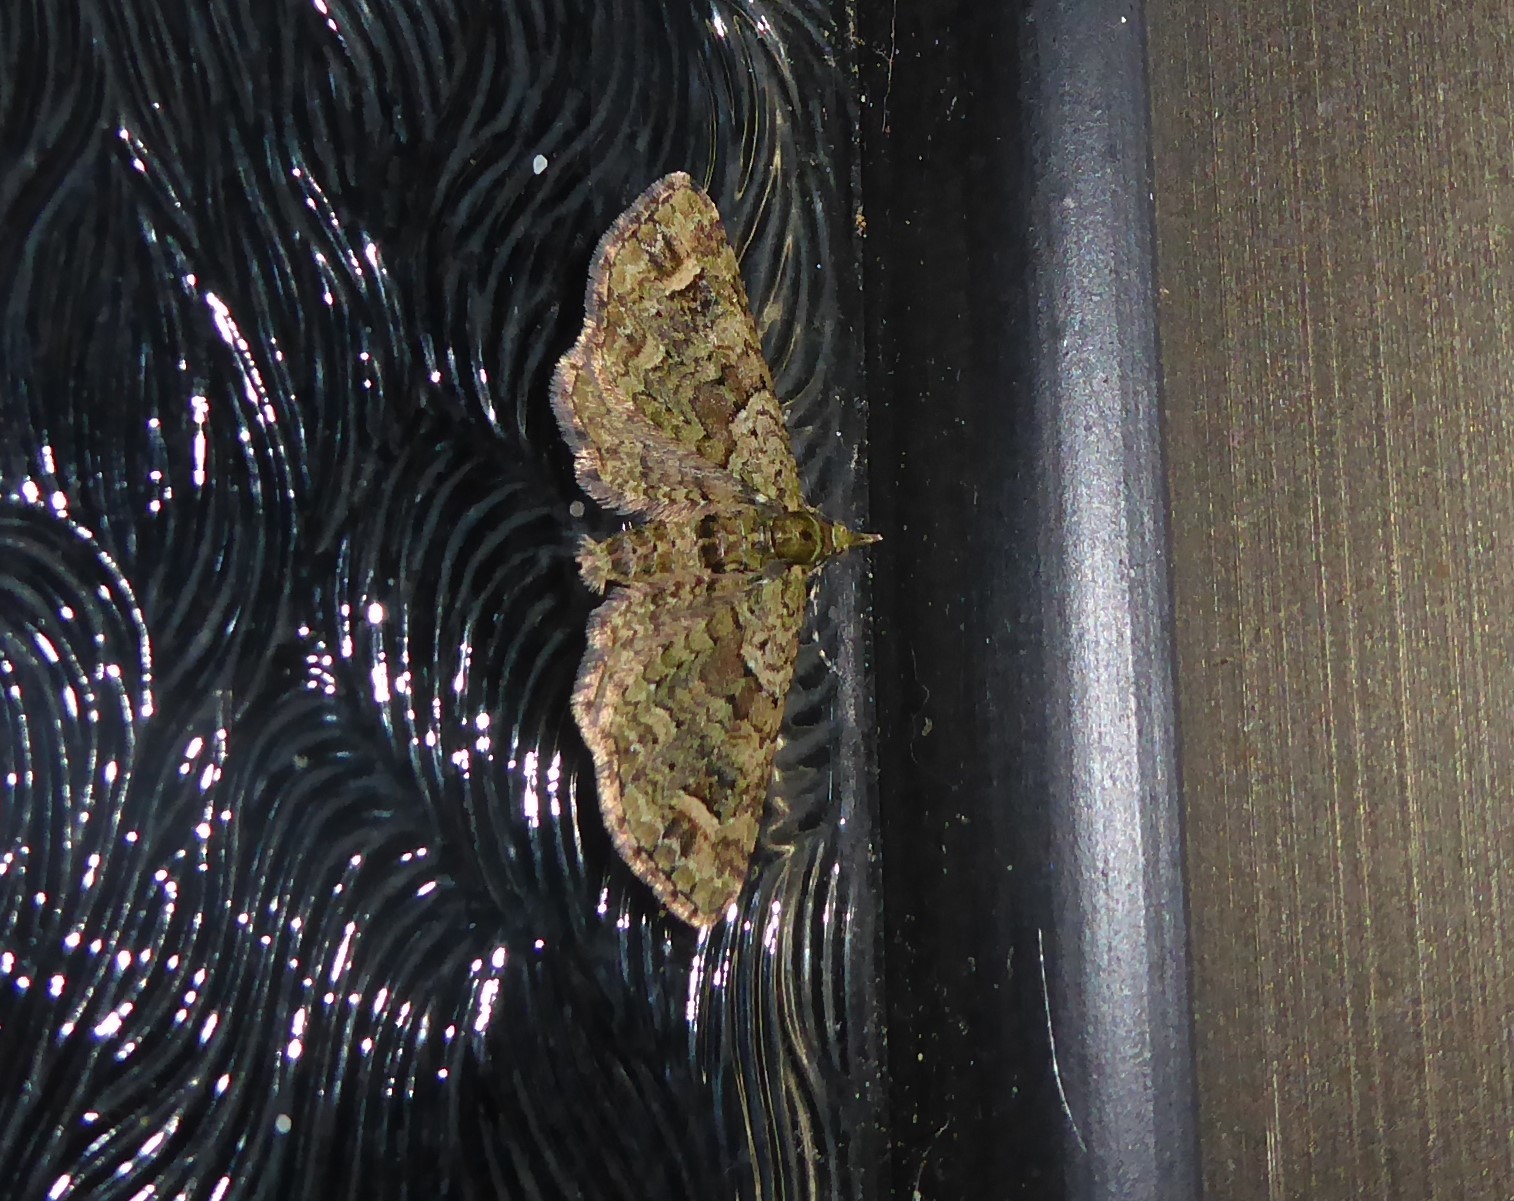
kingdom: Animalia
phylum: Arthropoda
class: Insecta
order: Lepidoptera
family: Geometridae
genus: Idaea
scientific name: Idaea mutanda
